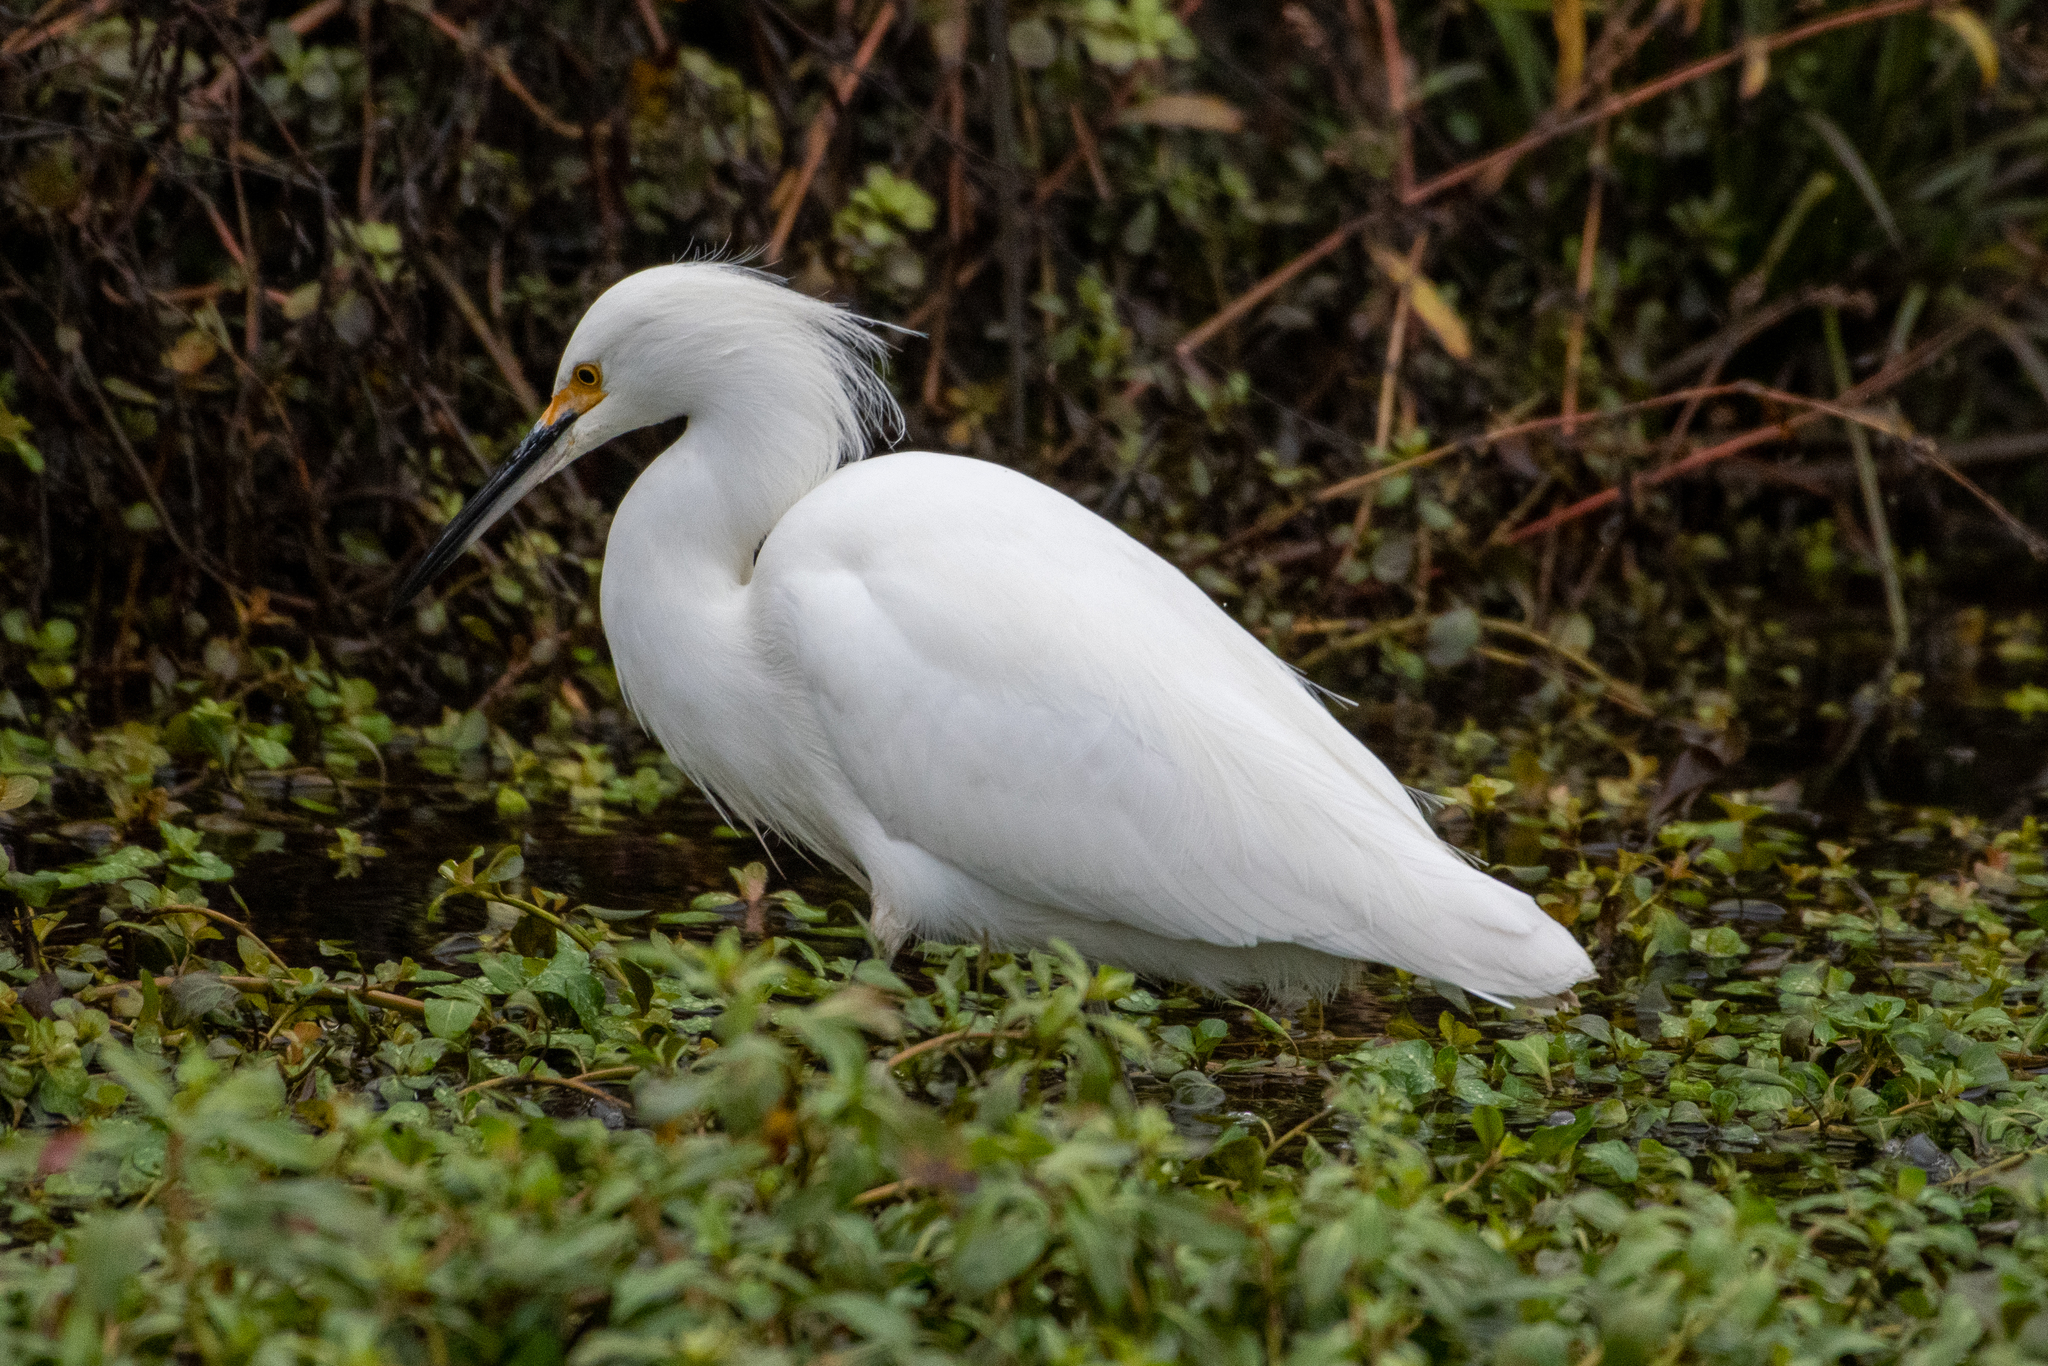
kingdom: Animalia
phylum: Chordata
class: Aves
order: Pelecaniformes
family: Ardeidae
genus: Egretta
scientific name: Egretta thula
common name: Snowy egret
